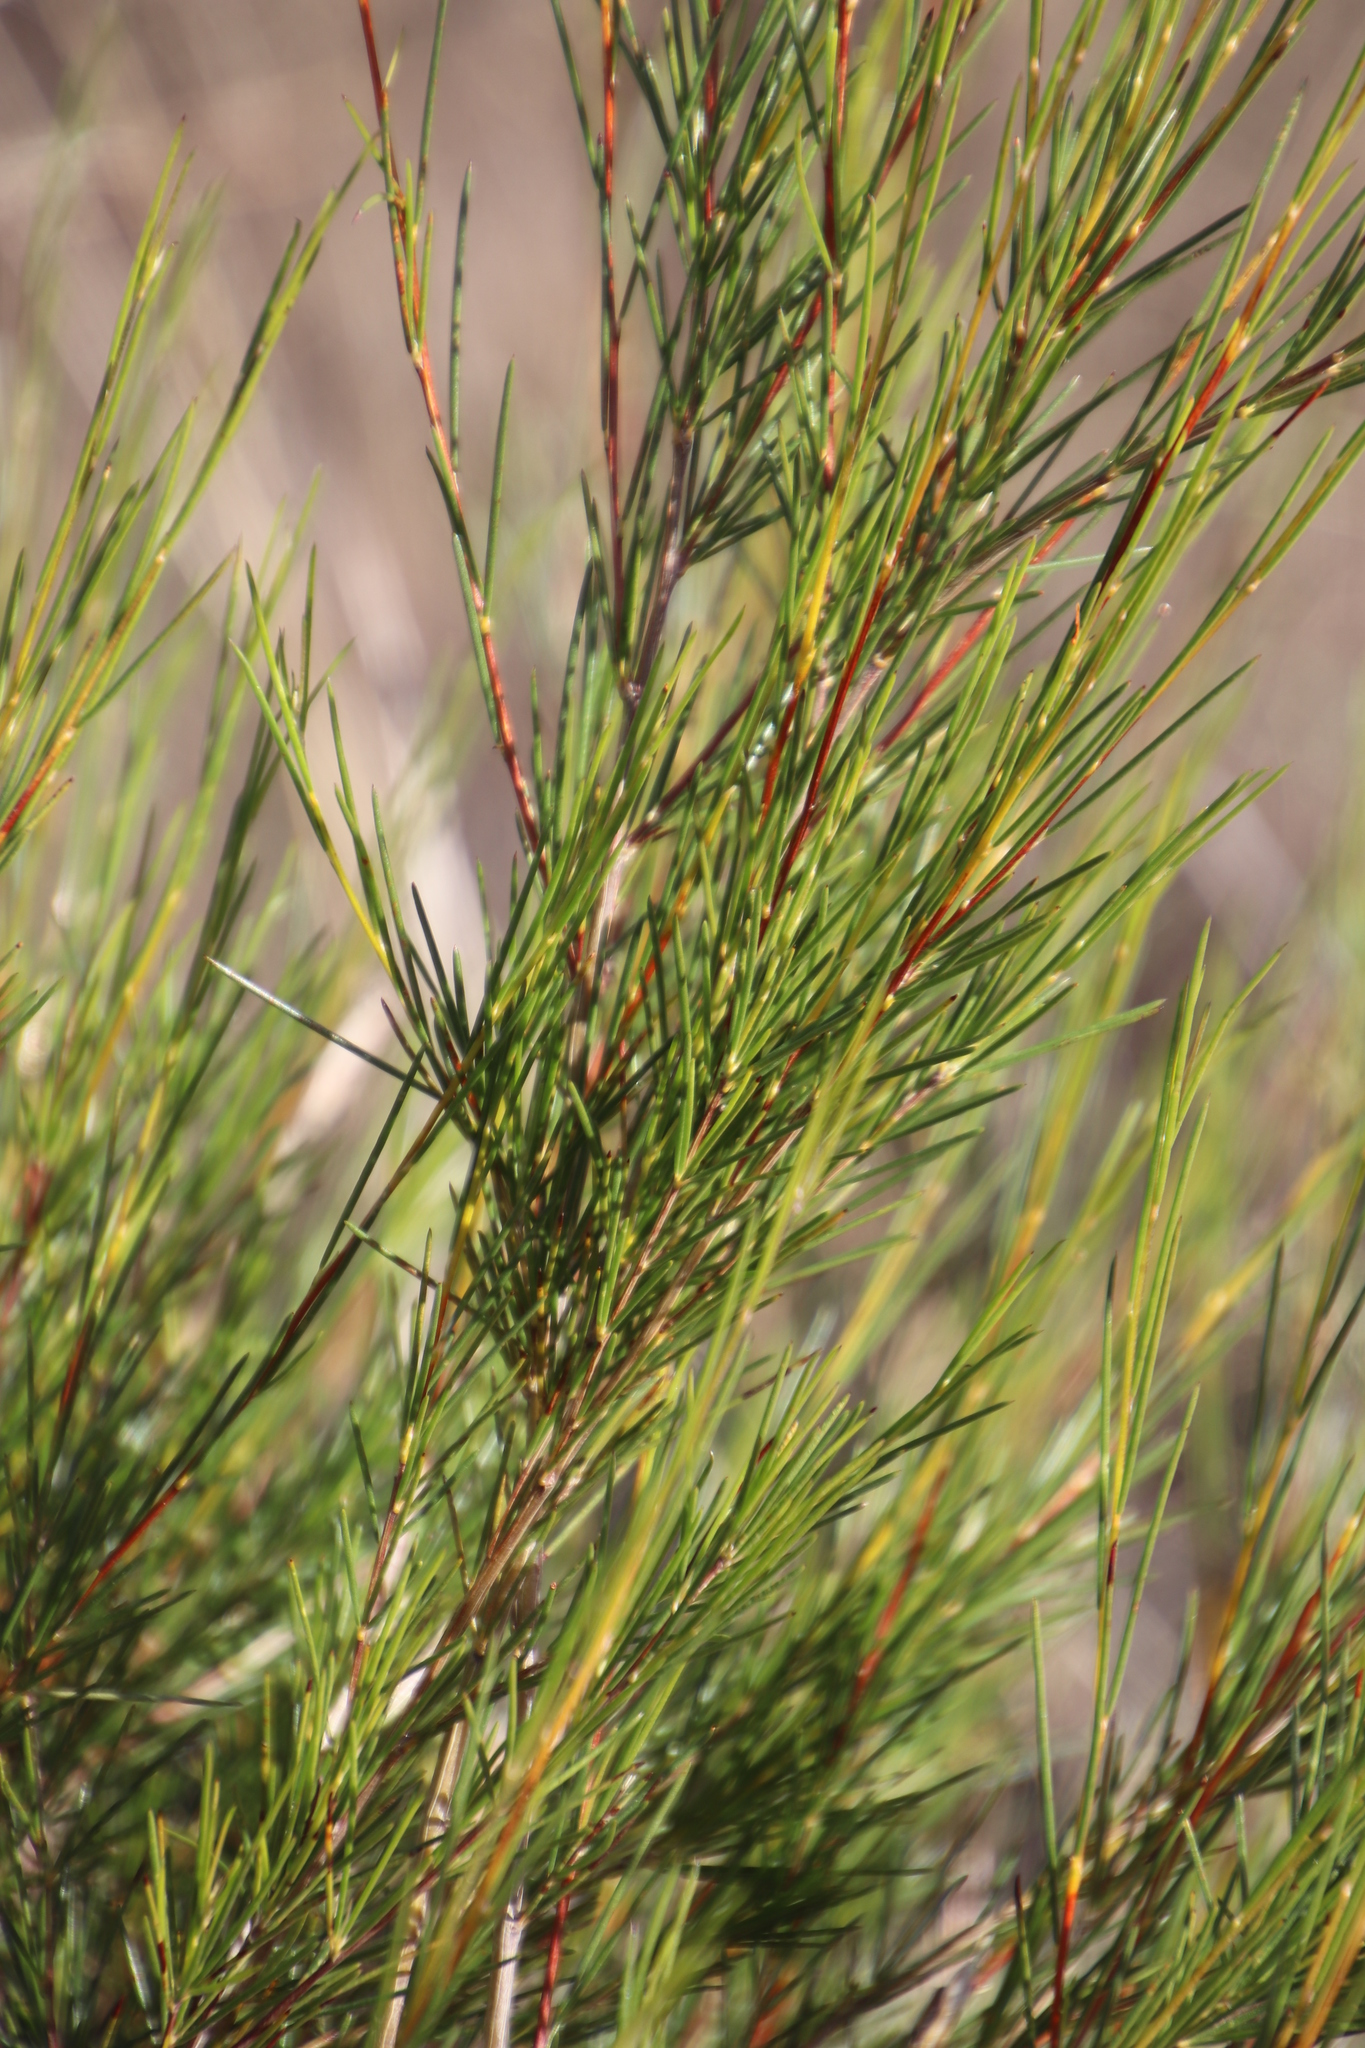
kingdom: Plantae
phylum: Tracheophyta
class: Magnoliopsida
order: Fabales
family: Fabaceae
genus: Aspalathus
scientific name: Aspalathus linearis
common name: Rooibos-tea
